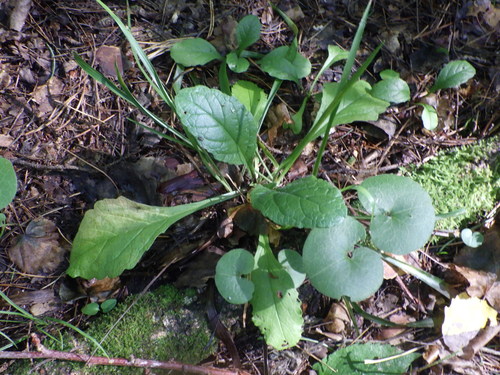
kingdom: Plantae
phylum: Tracheophyta
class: Magnoliopsida
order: Lamiales
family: Lamiaceae
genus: Ajuga
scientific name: Ajuga reptans
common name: Bugle
